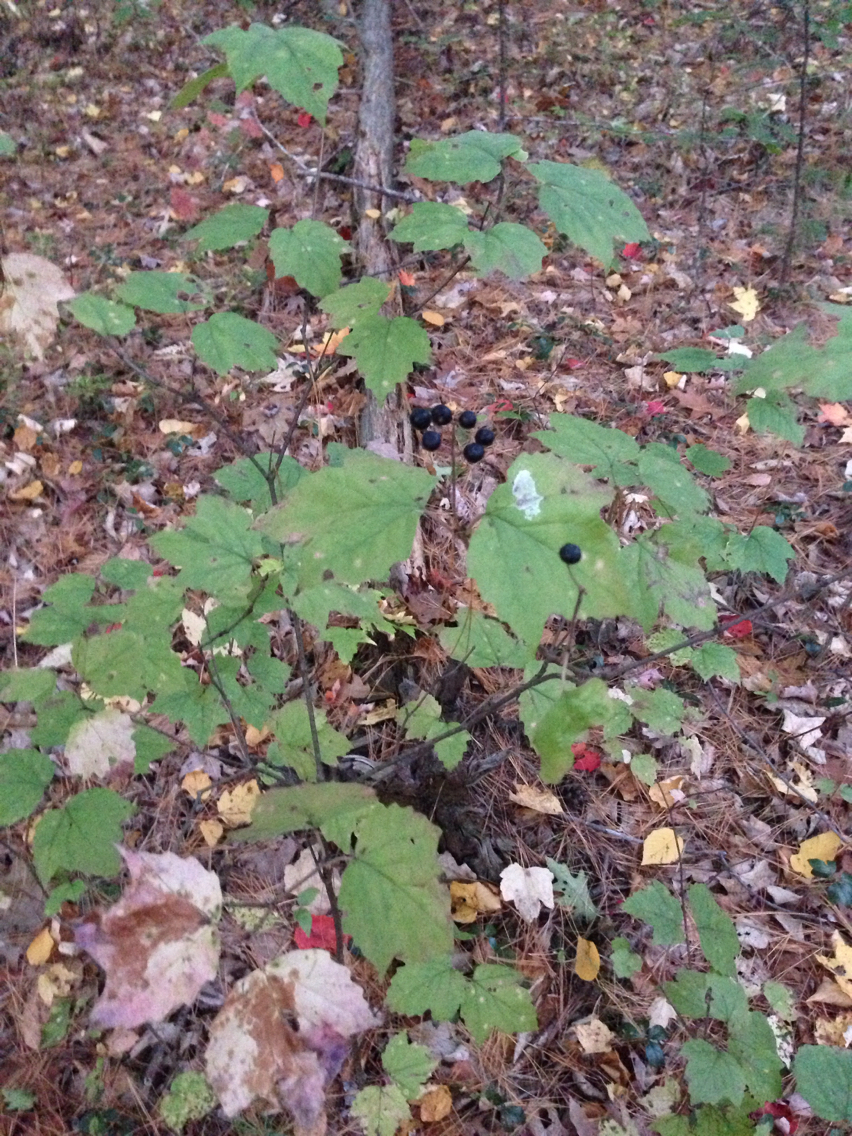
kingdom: Plantae
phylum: Tracheophyta
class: Magnoliopsida
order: Dipsacales
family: Viburnaceae
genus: Viburnum
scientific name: Viburnum acerifolium
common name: Dockmackie
